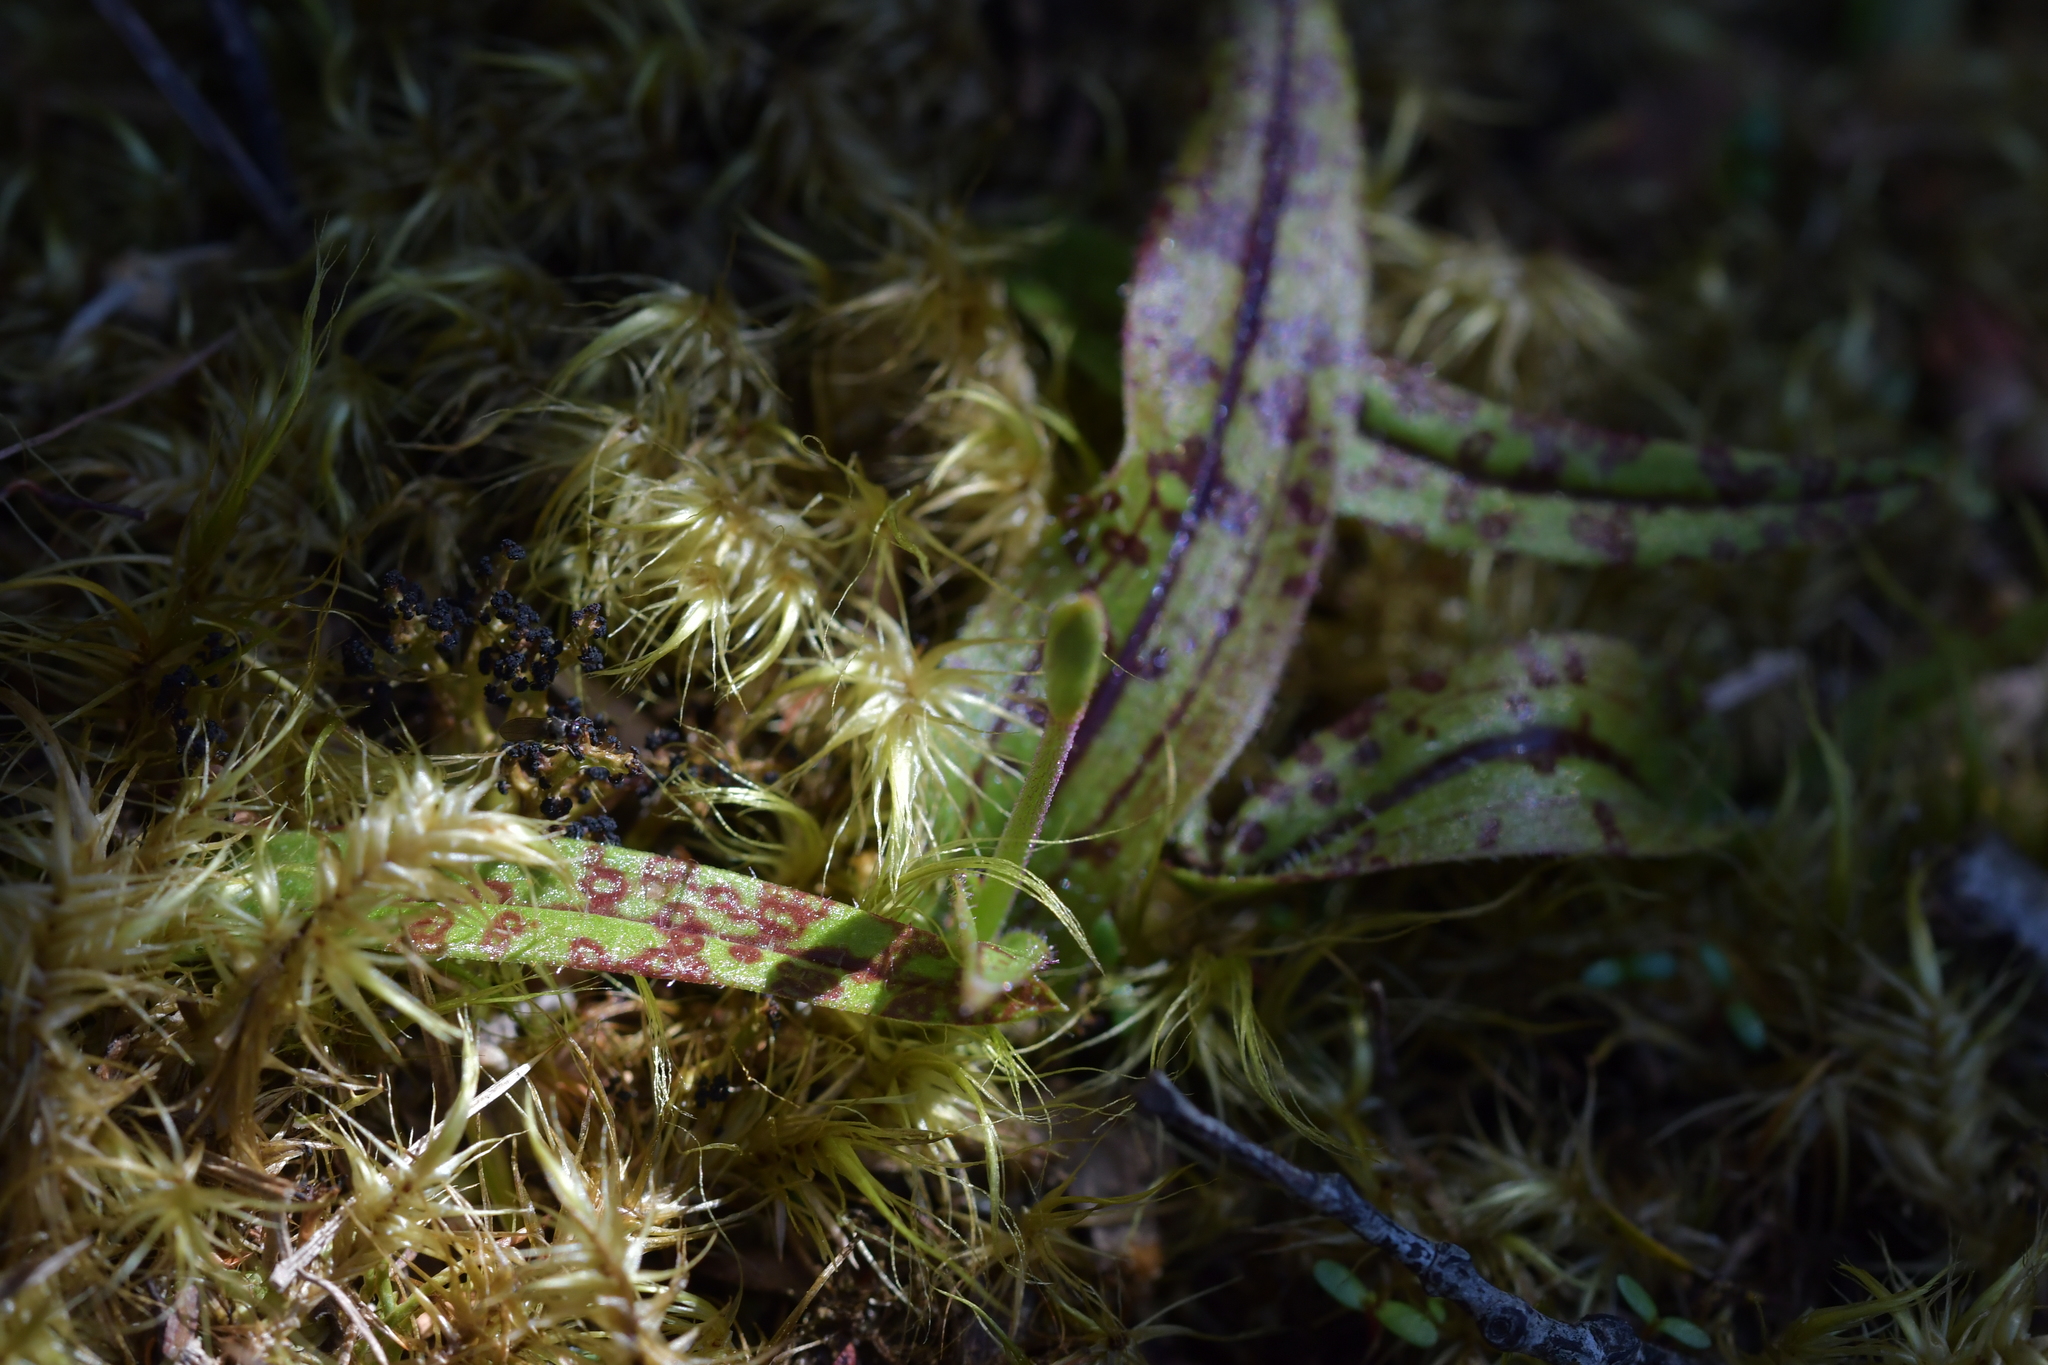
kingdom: Plantae
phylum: Tracheophyta
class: Liliopsida
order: Asparagales
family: Orchidaceae
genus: Aporostylis
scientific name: Aporostylis bifolia
